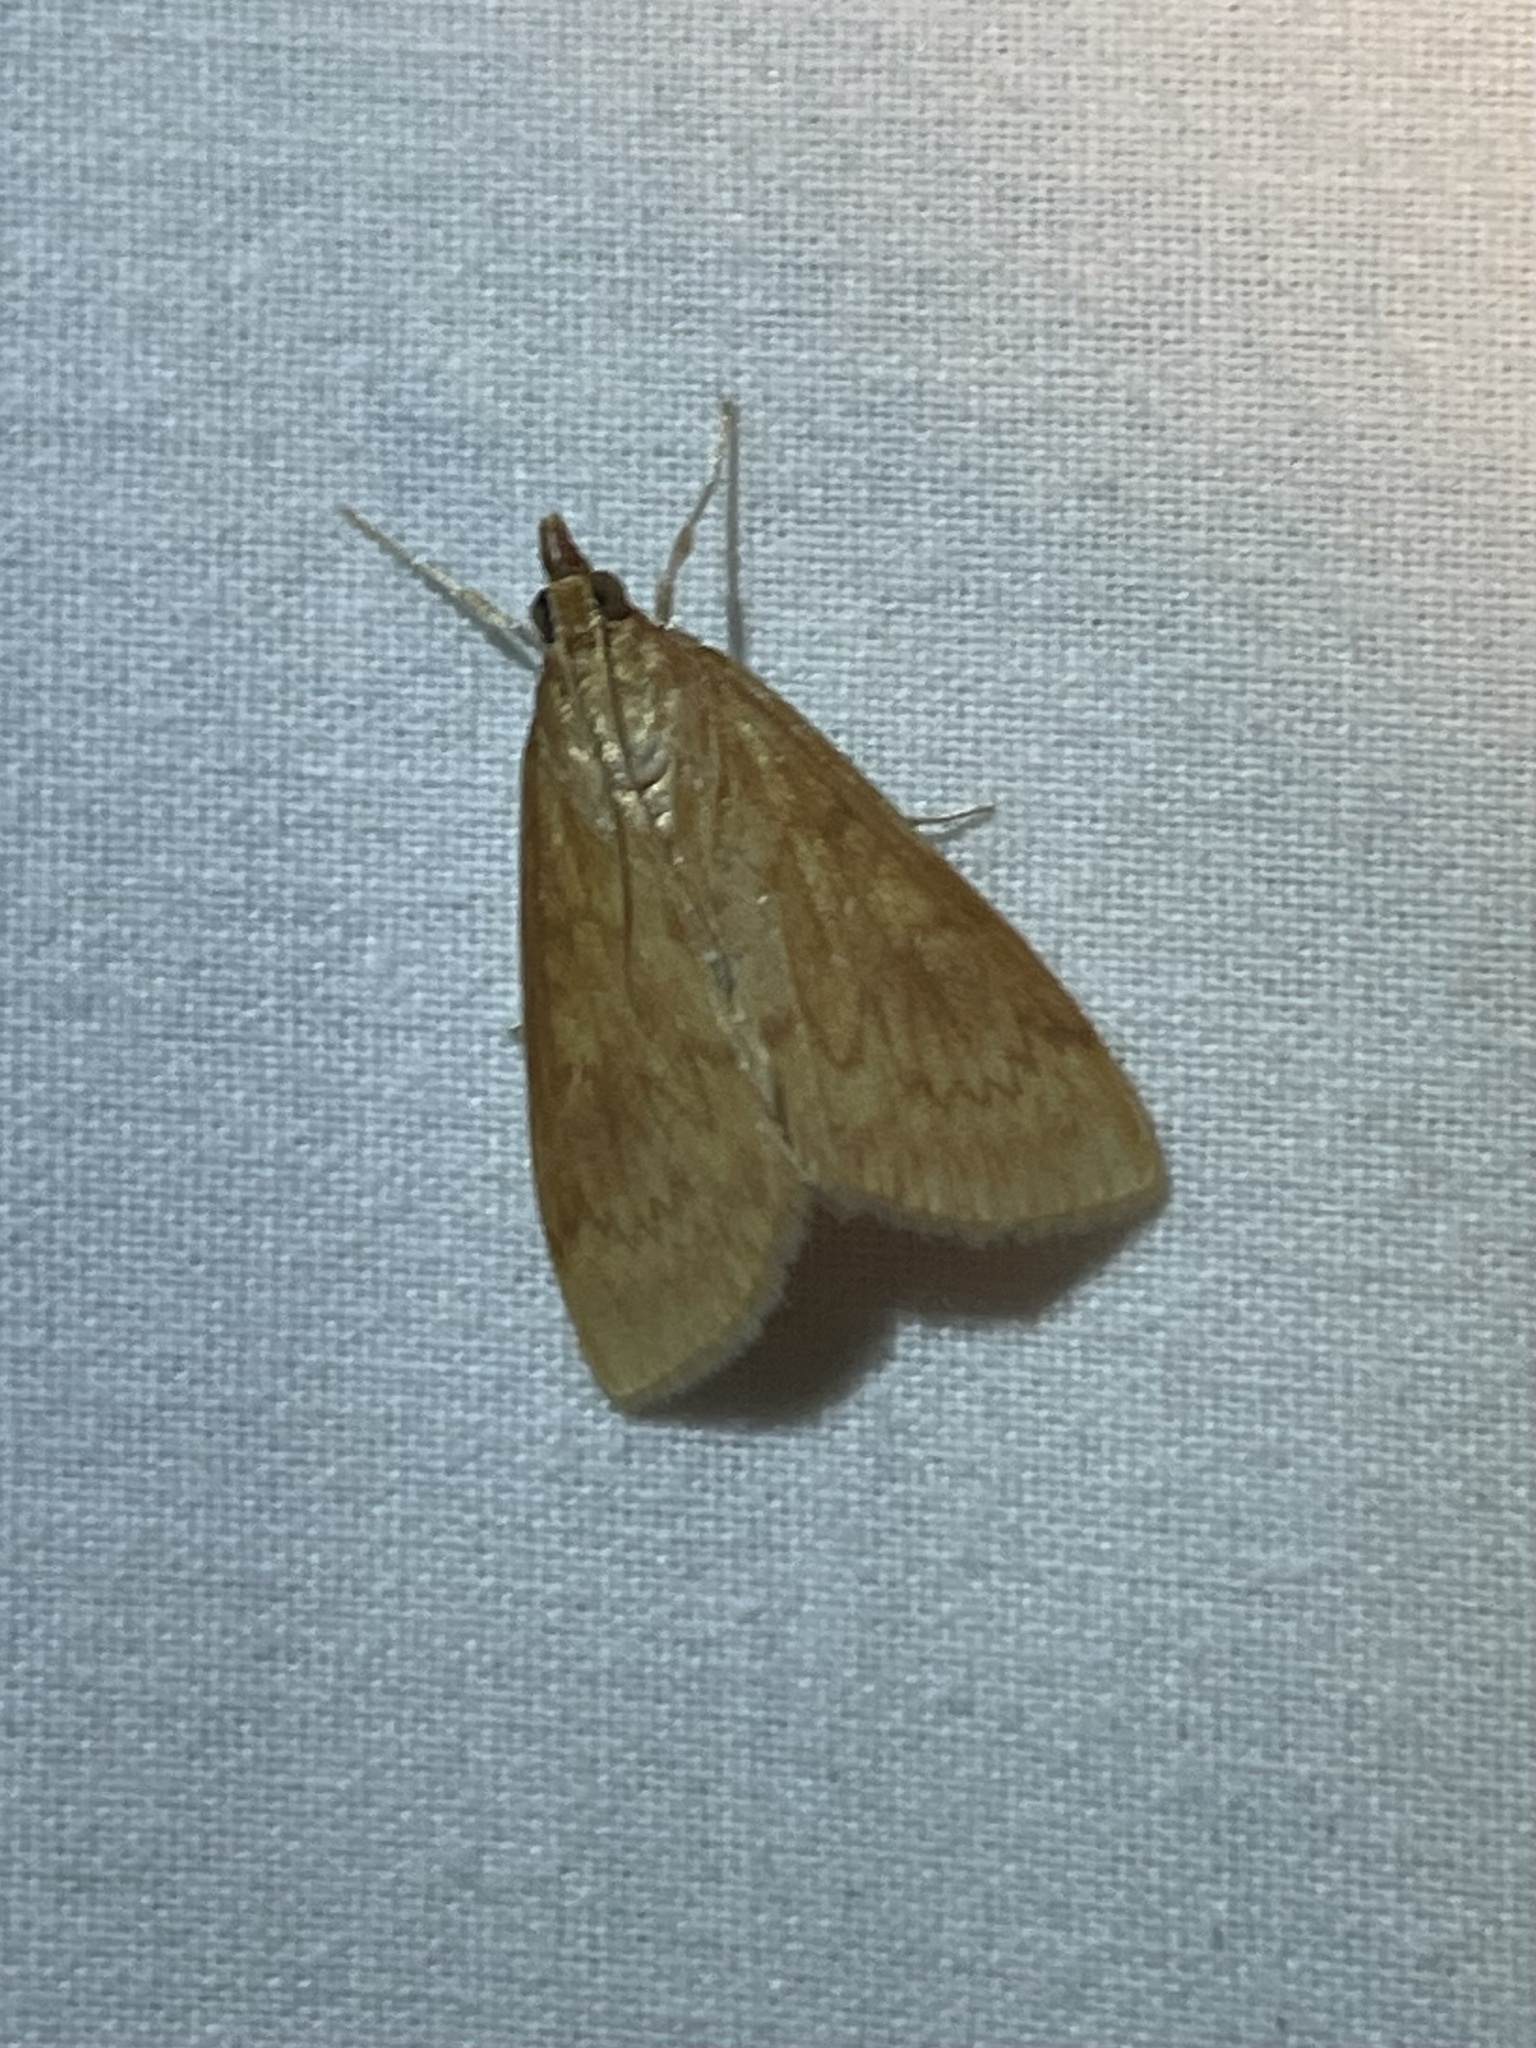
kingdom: Animalia
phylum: Arthropoda
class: Insecta
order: Lepidoptera
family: Crambidae
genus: Ostrinia
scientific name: Ostrinia penitalis
